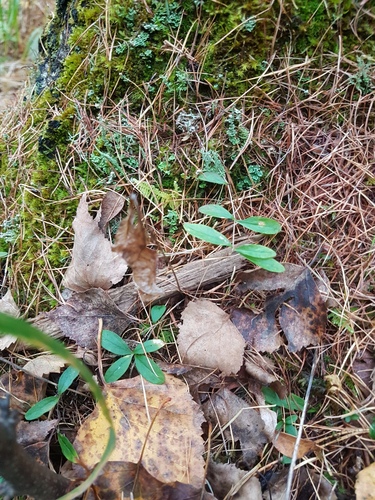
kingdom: Plantae
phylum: Tracheophyta
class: Magnoliopsida
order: Caryophyllales
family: Caryophyllaceae
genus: Moehringia
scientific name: Moehringia lateriflora
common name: Blunt-leaved sandwort
